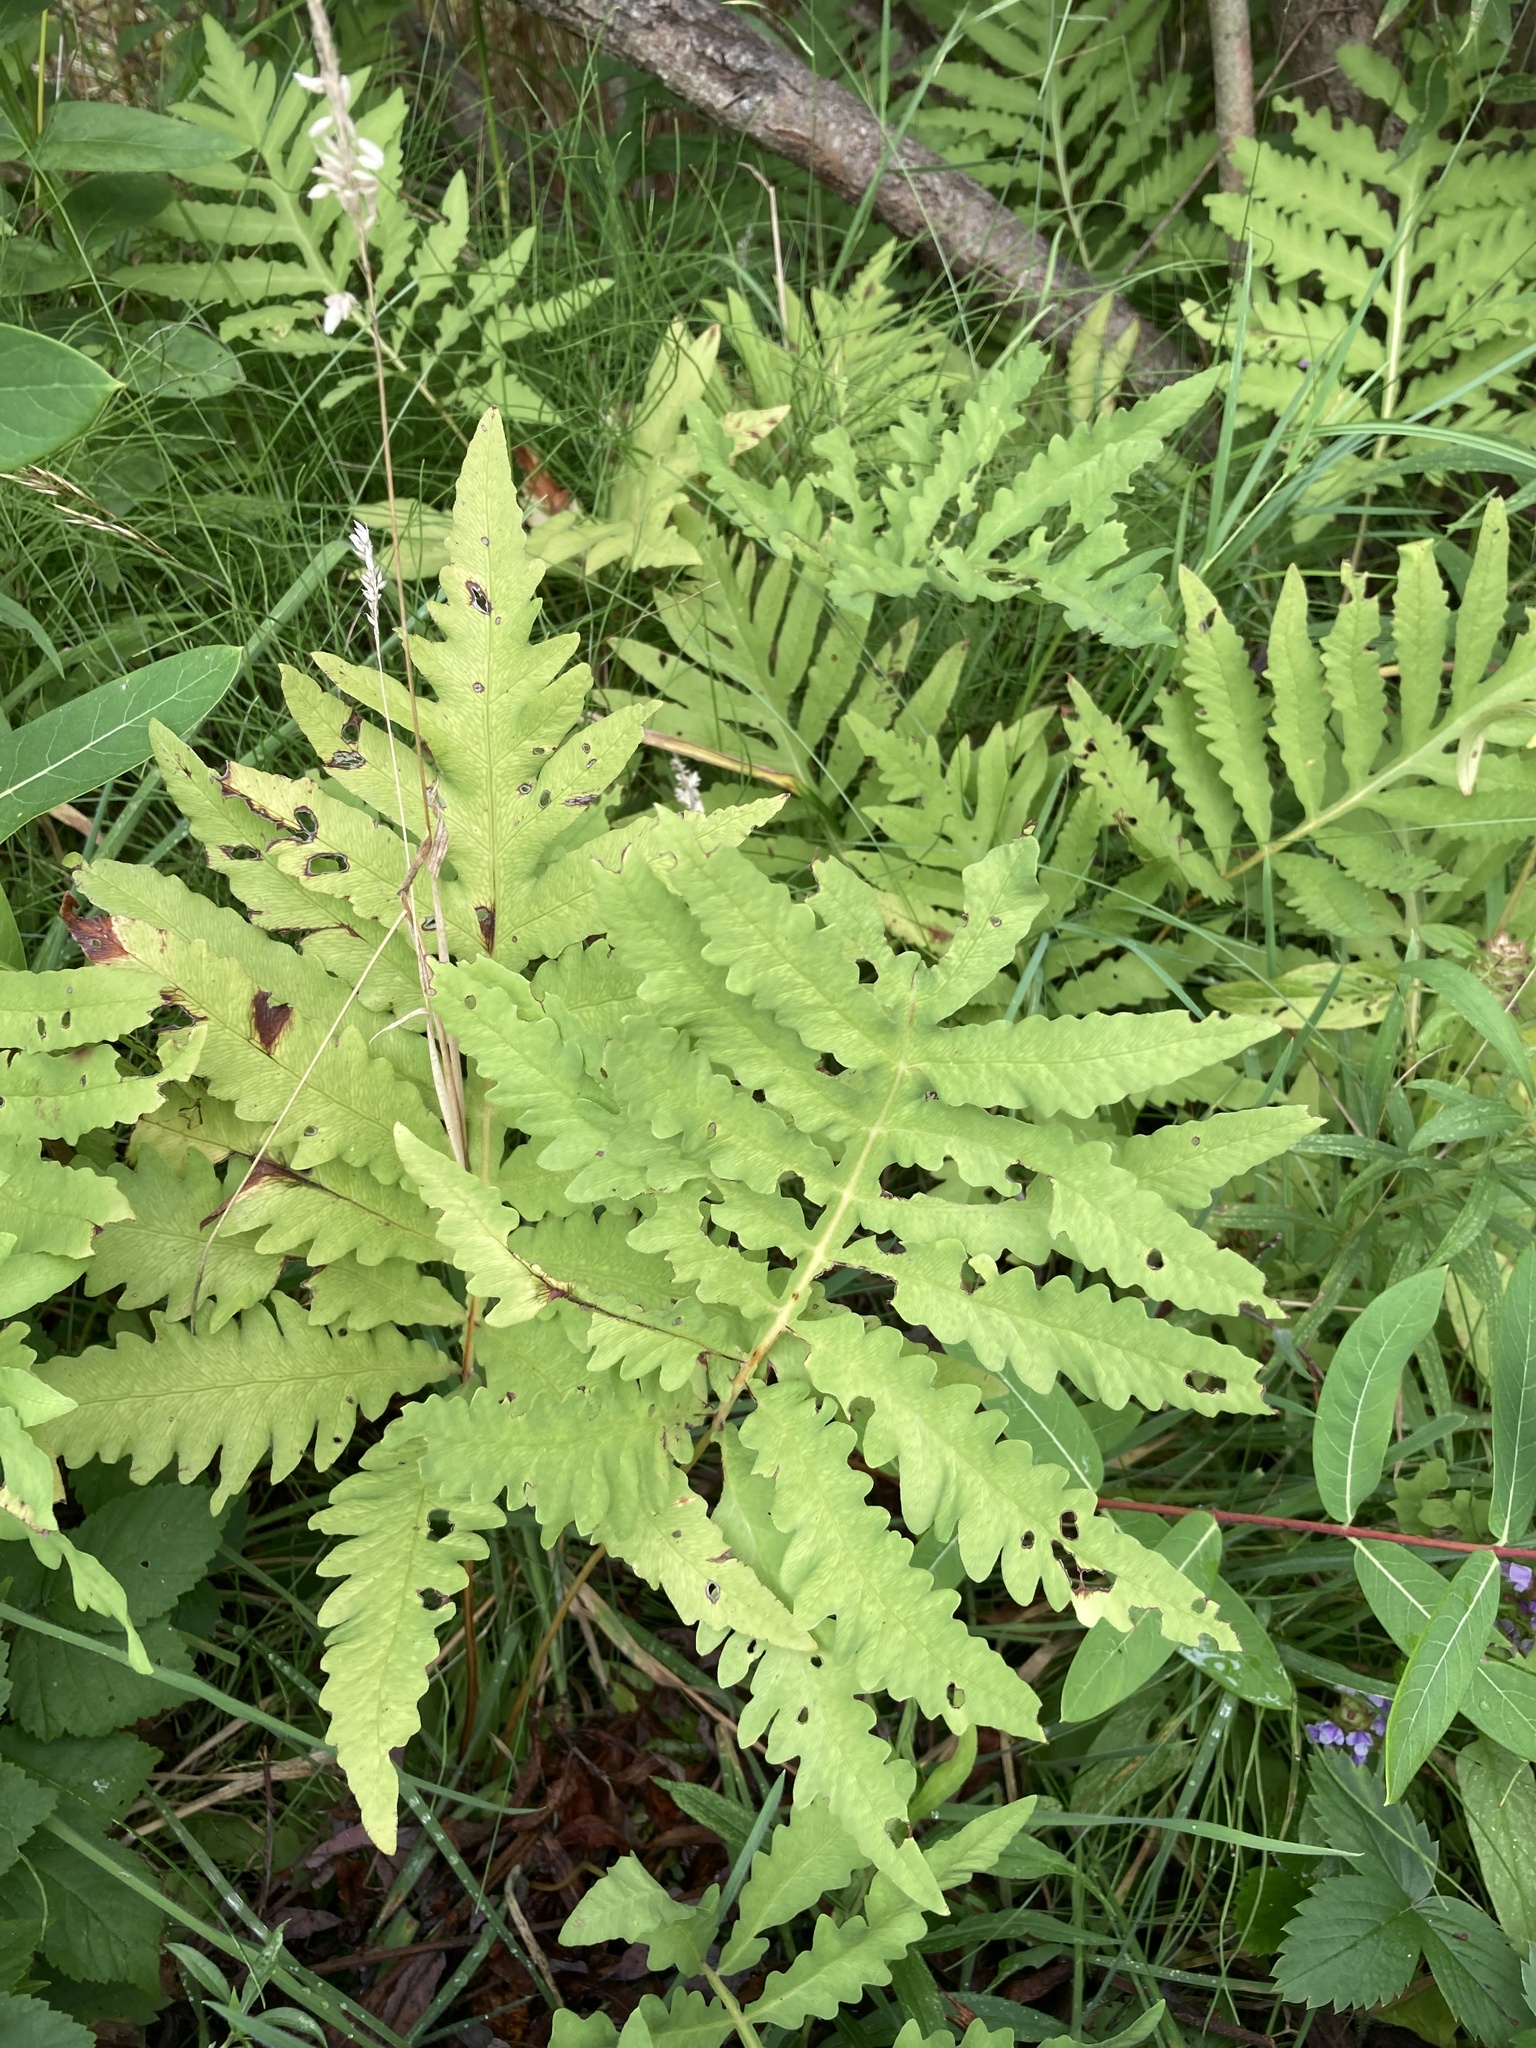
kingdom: Plantae
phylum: Tracheophyta
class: Polypodiopsida
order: Polypodiales
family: Onocleaceae
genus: Onoclea
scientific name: Onoclea sensibilis
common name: Sensitive fern
